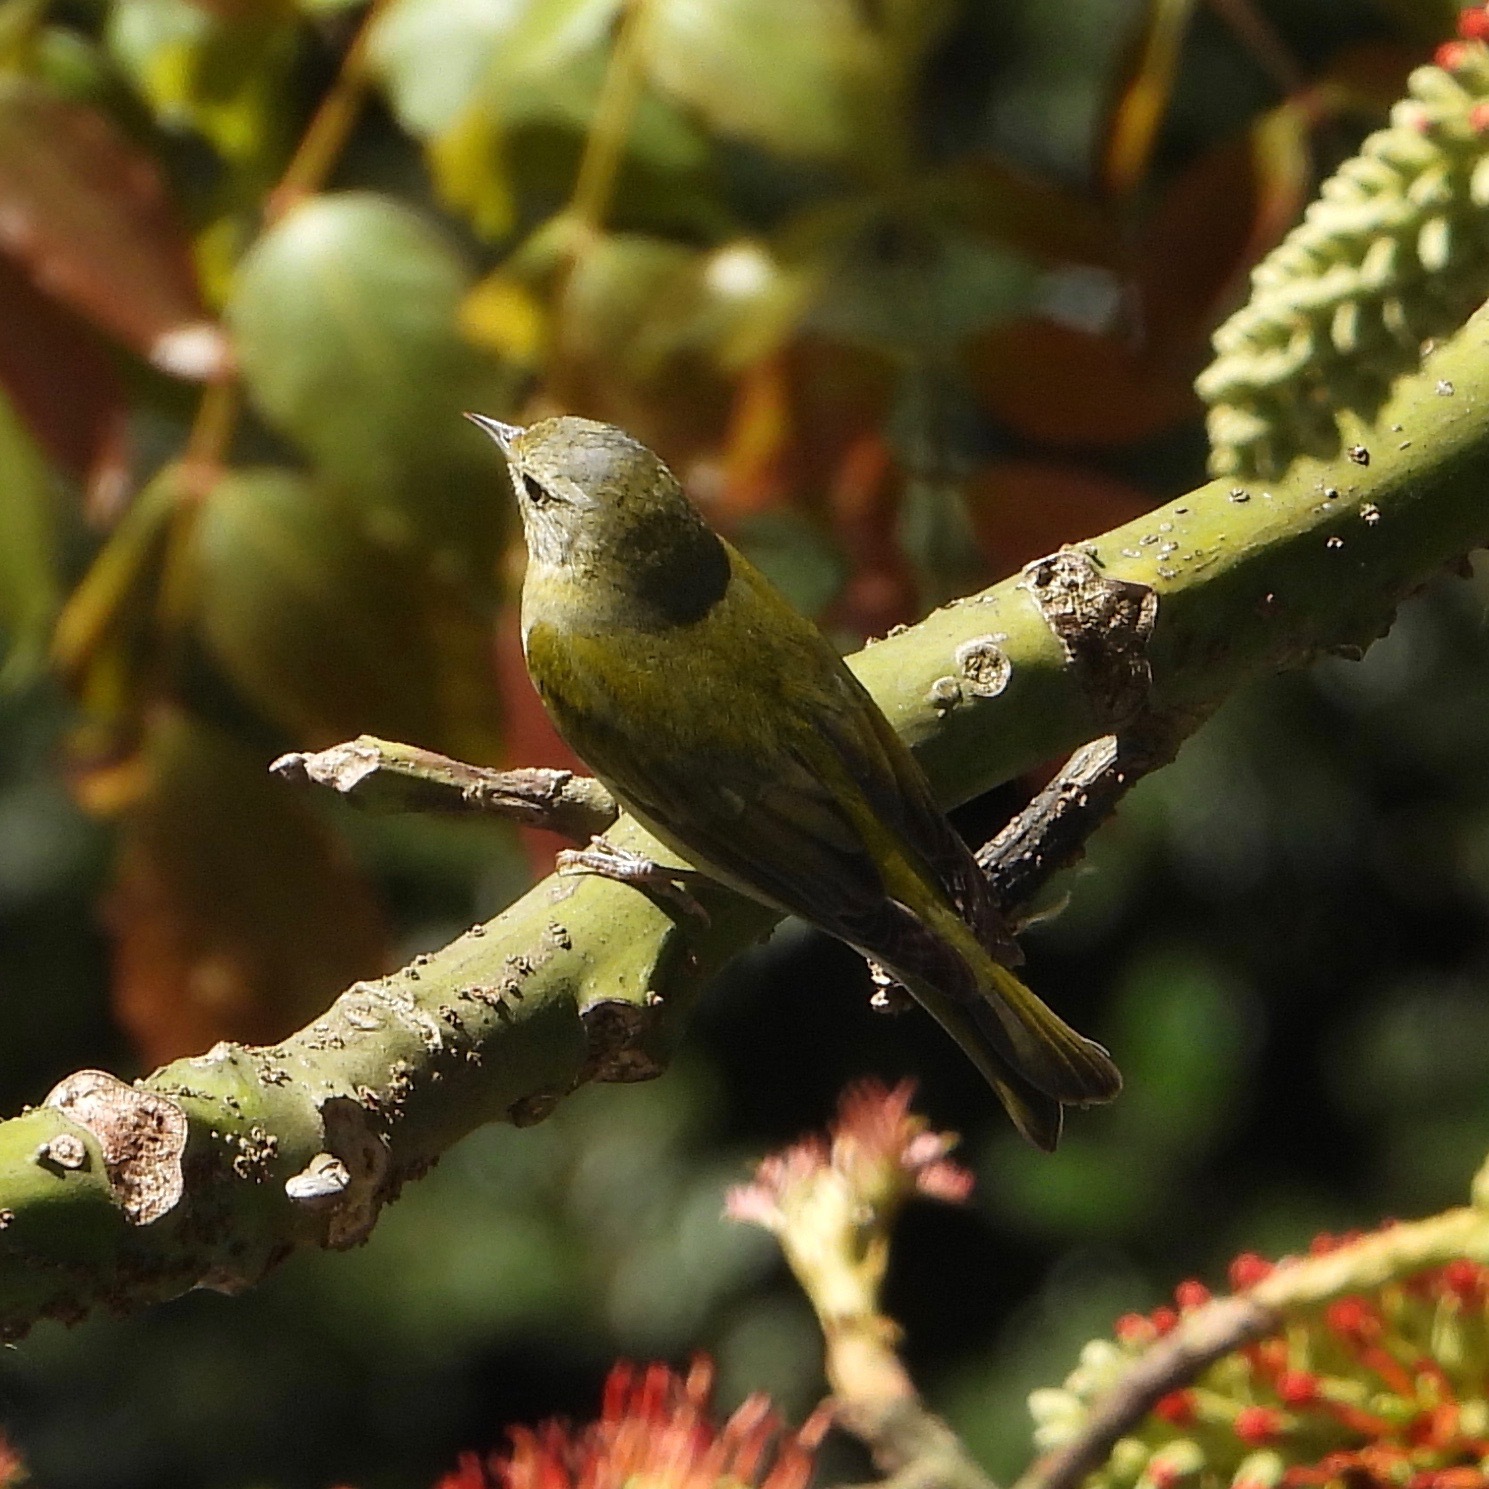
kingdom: Animalia
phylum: Chordata
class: Aves
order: Passeriformes
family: Parulidae
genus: Leiothlypis
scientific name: Leiothlypis peregrina
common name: Tennessee warbler
